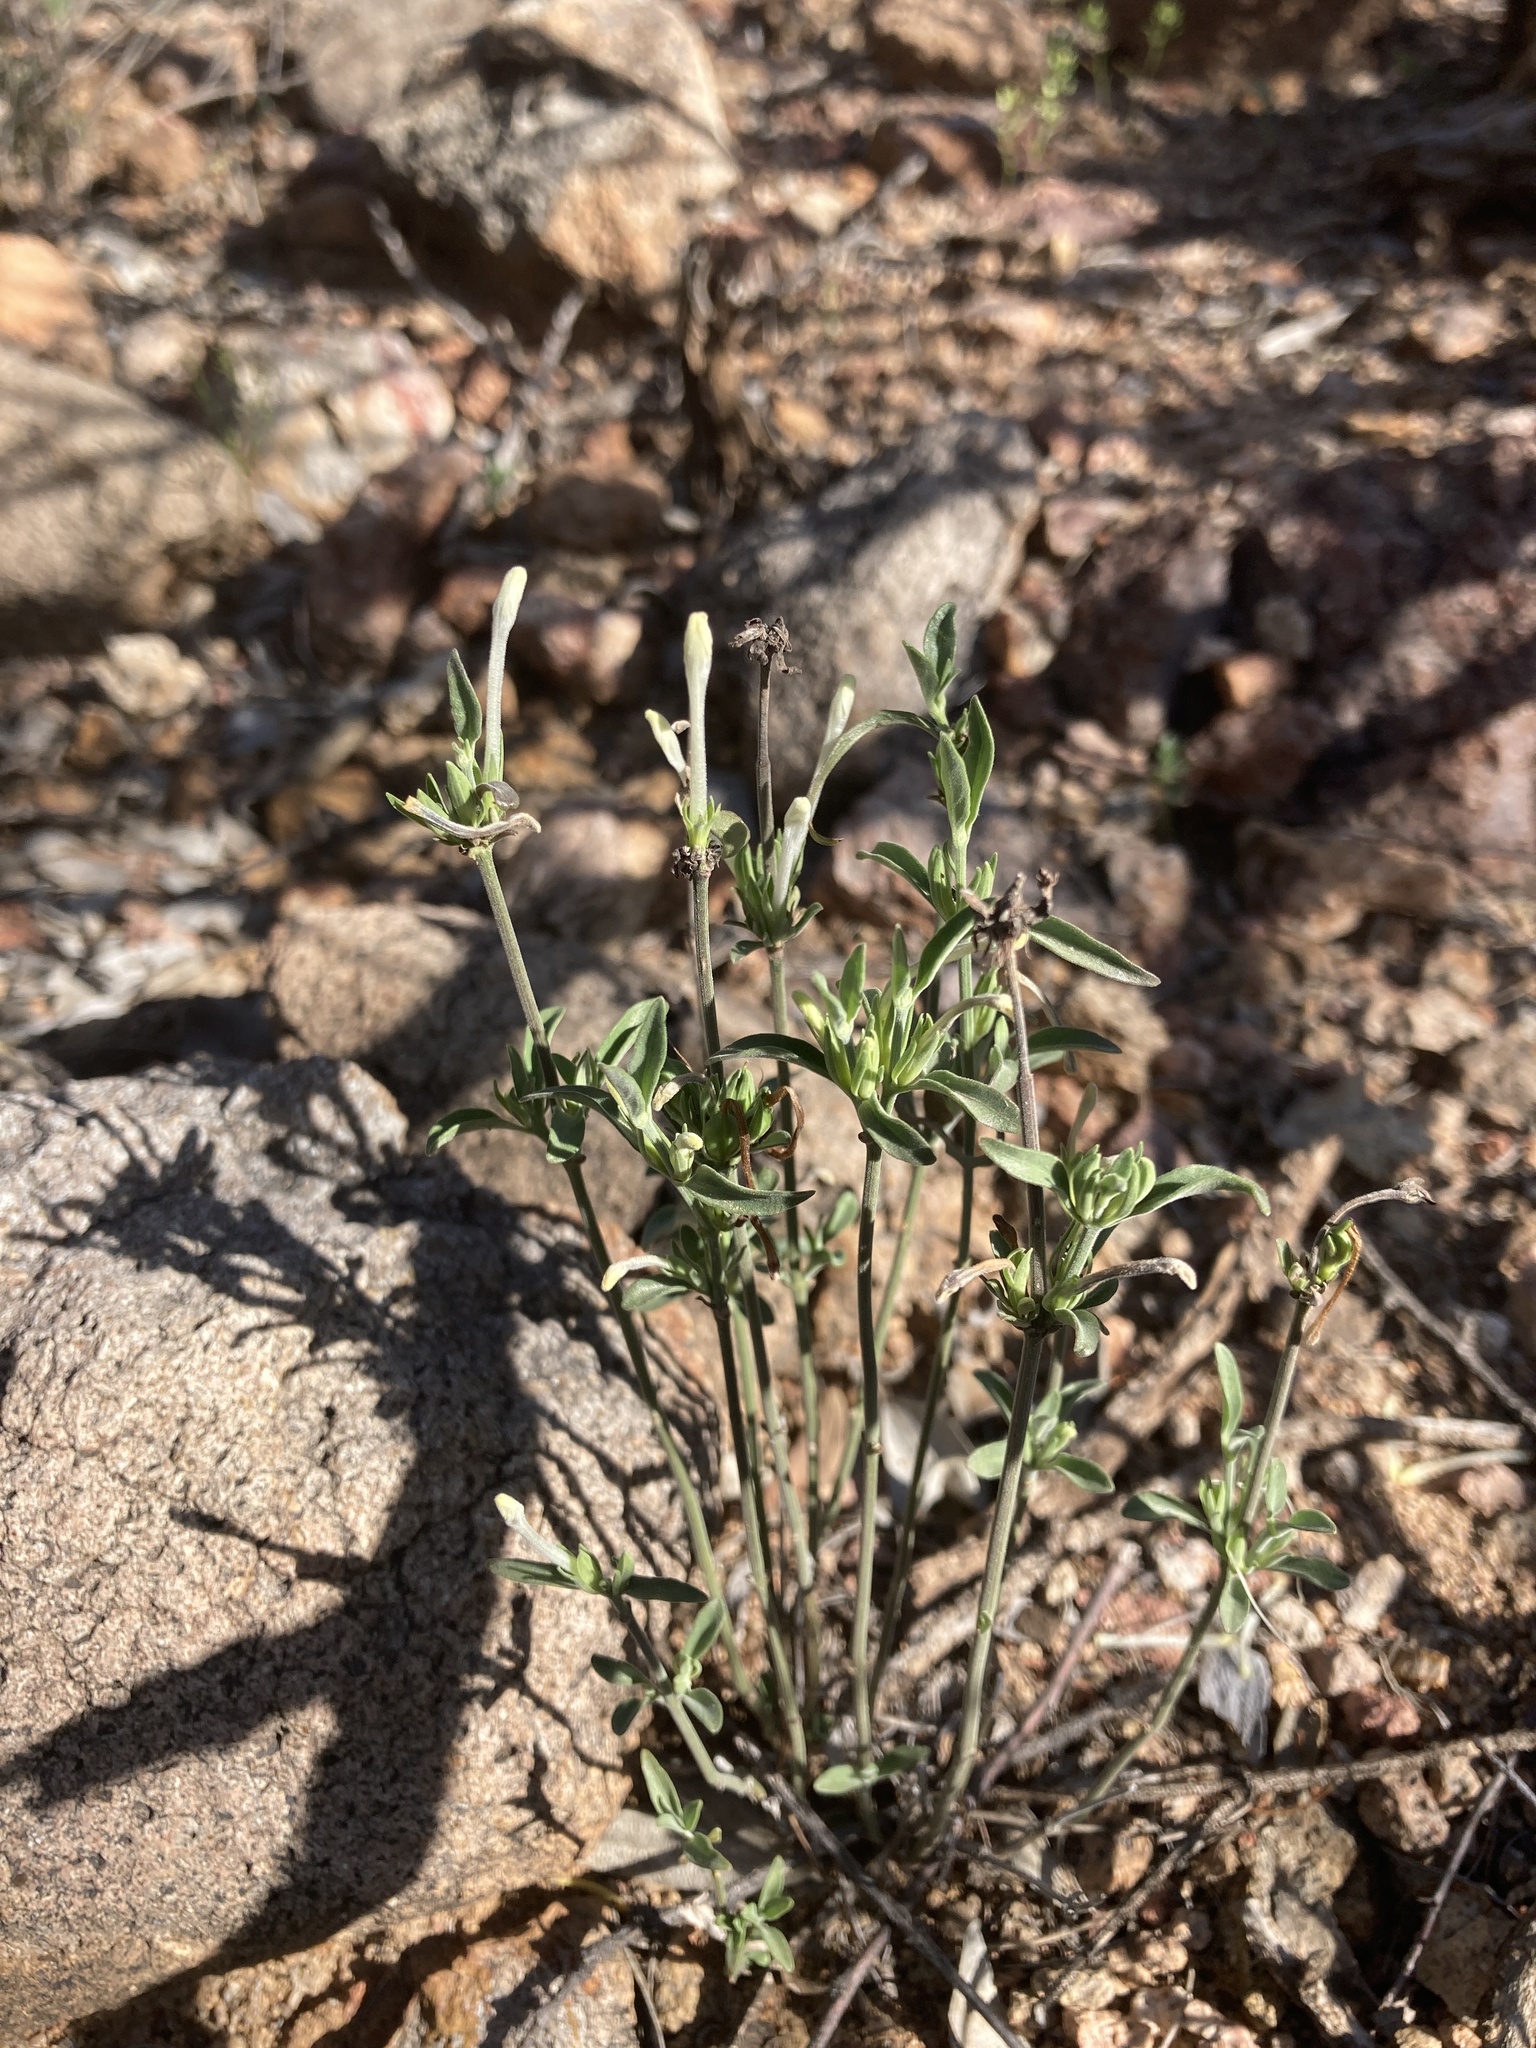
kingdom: Plantae
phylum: Tracheophyta
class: Magnoliopsida
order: Lamiales
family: Acanthaceae
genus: Justicia
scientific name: Justicia longii
